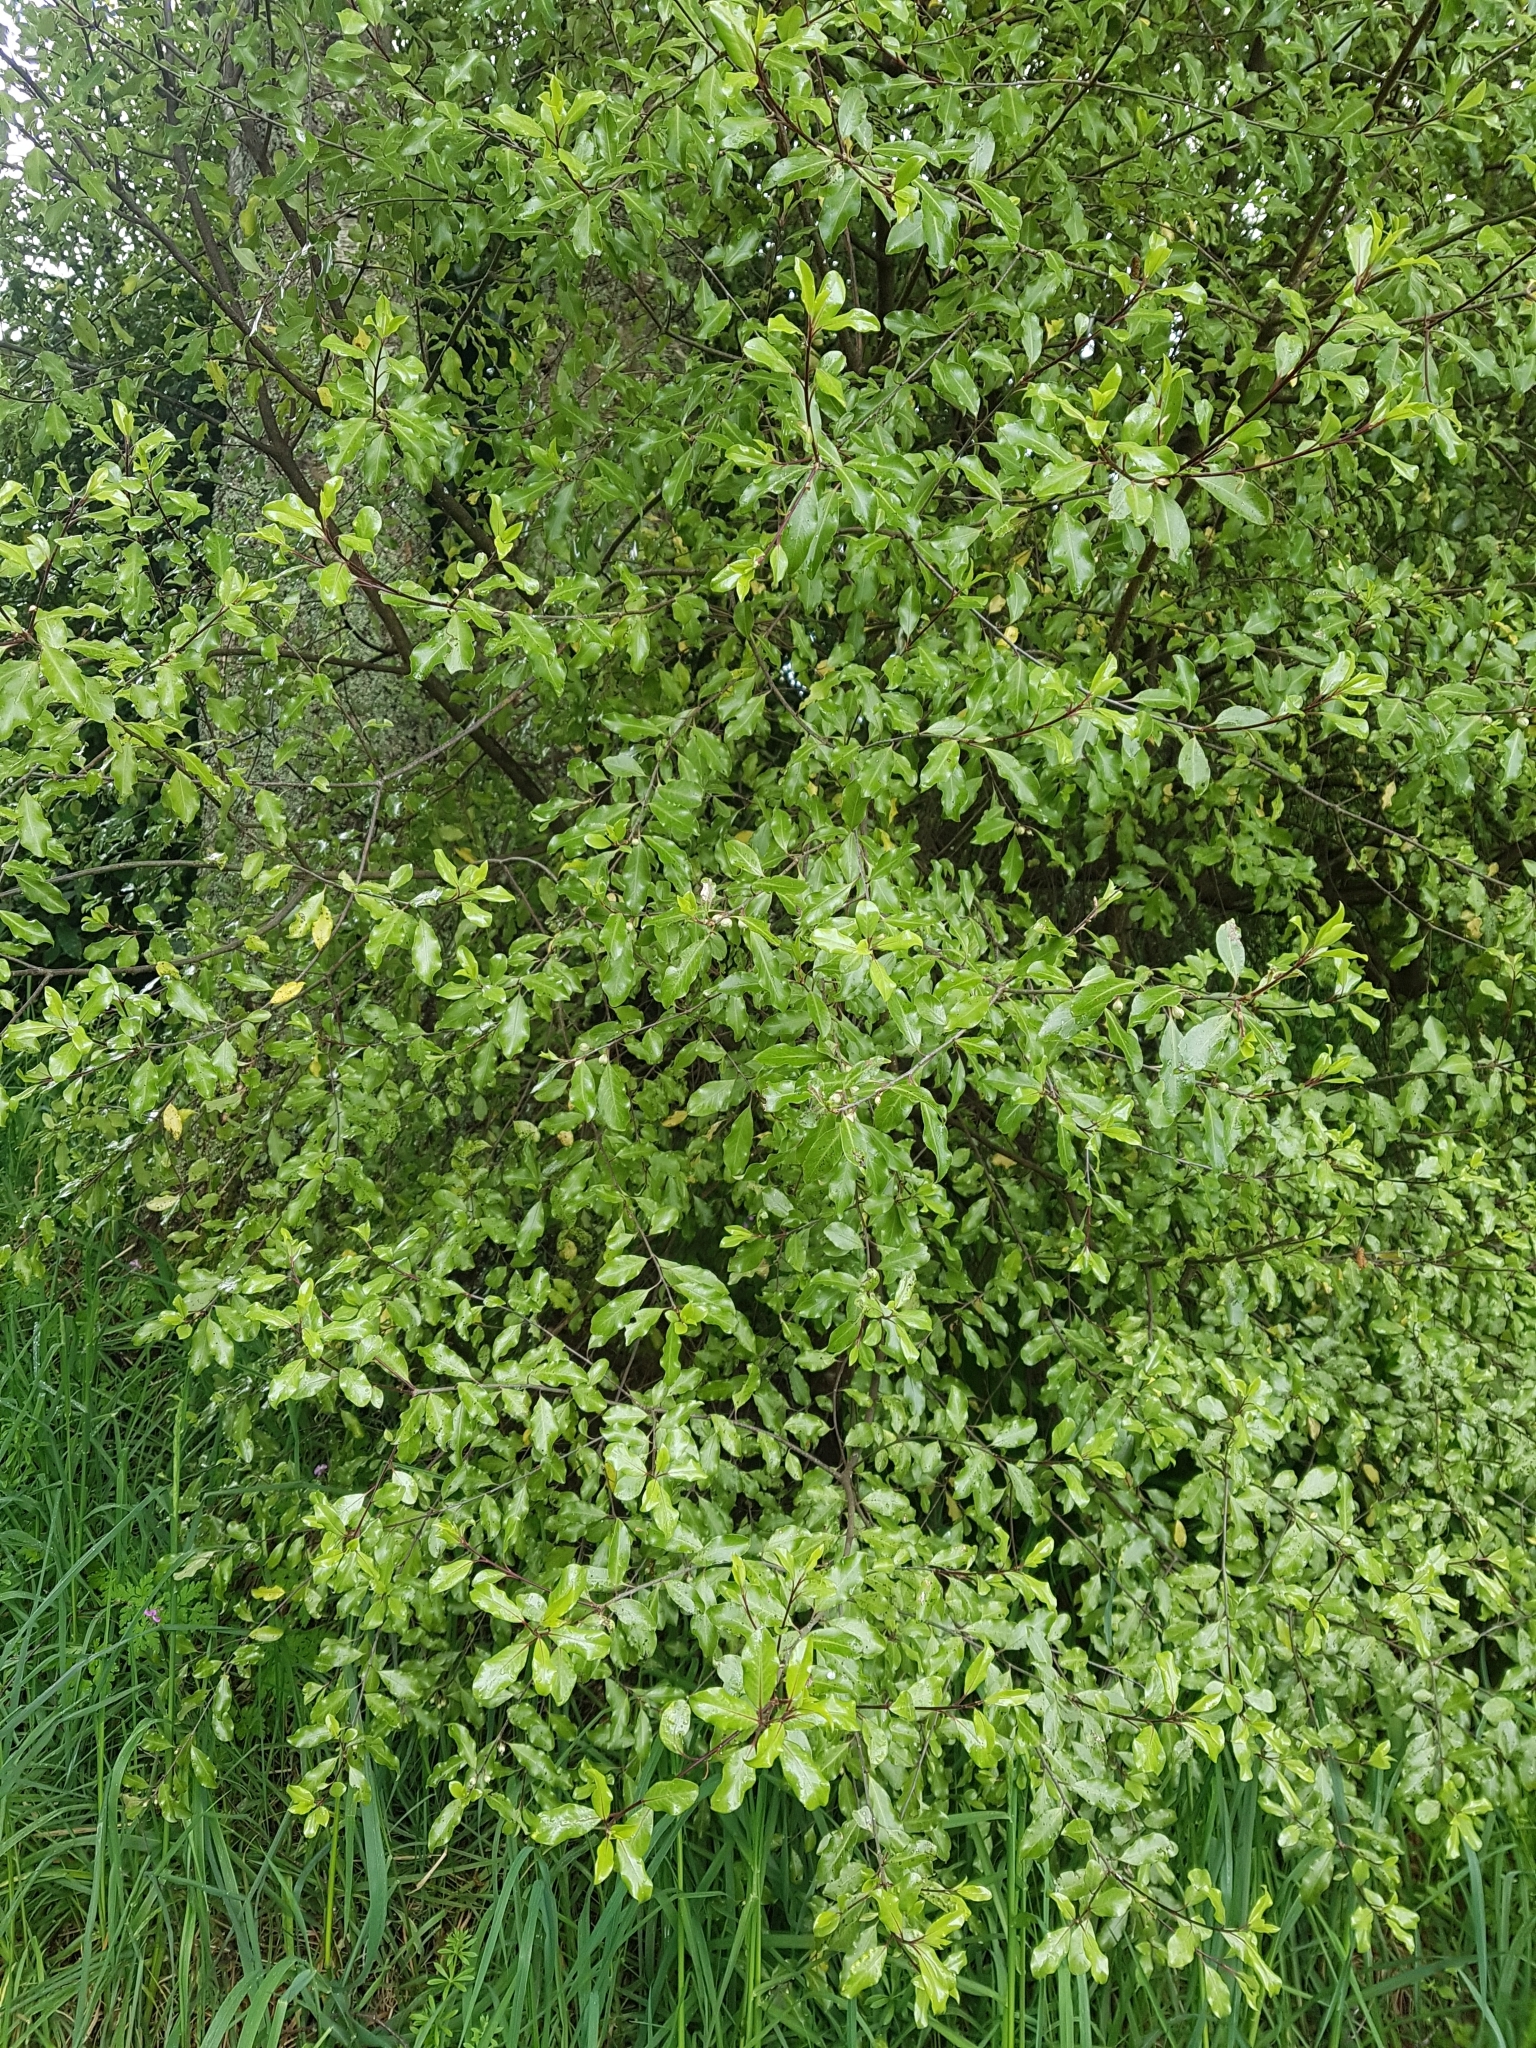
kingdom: Plantae
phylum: Tracheophyta
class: Magnoliopsida
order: Apiales
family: Pittosporaceae
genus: Pittosporum
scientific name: Pittosporum tenuifolium
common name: Kohuhu
